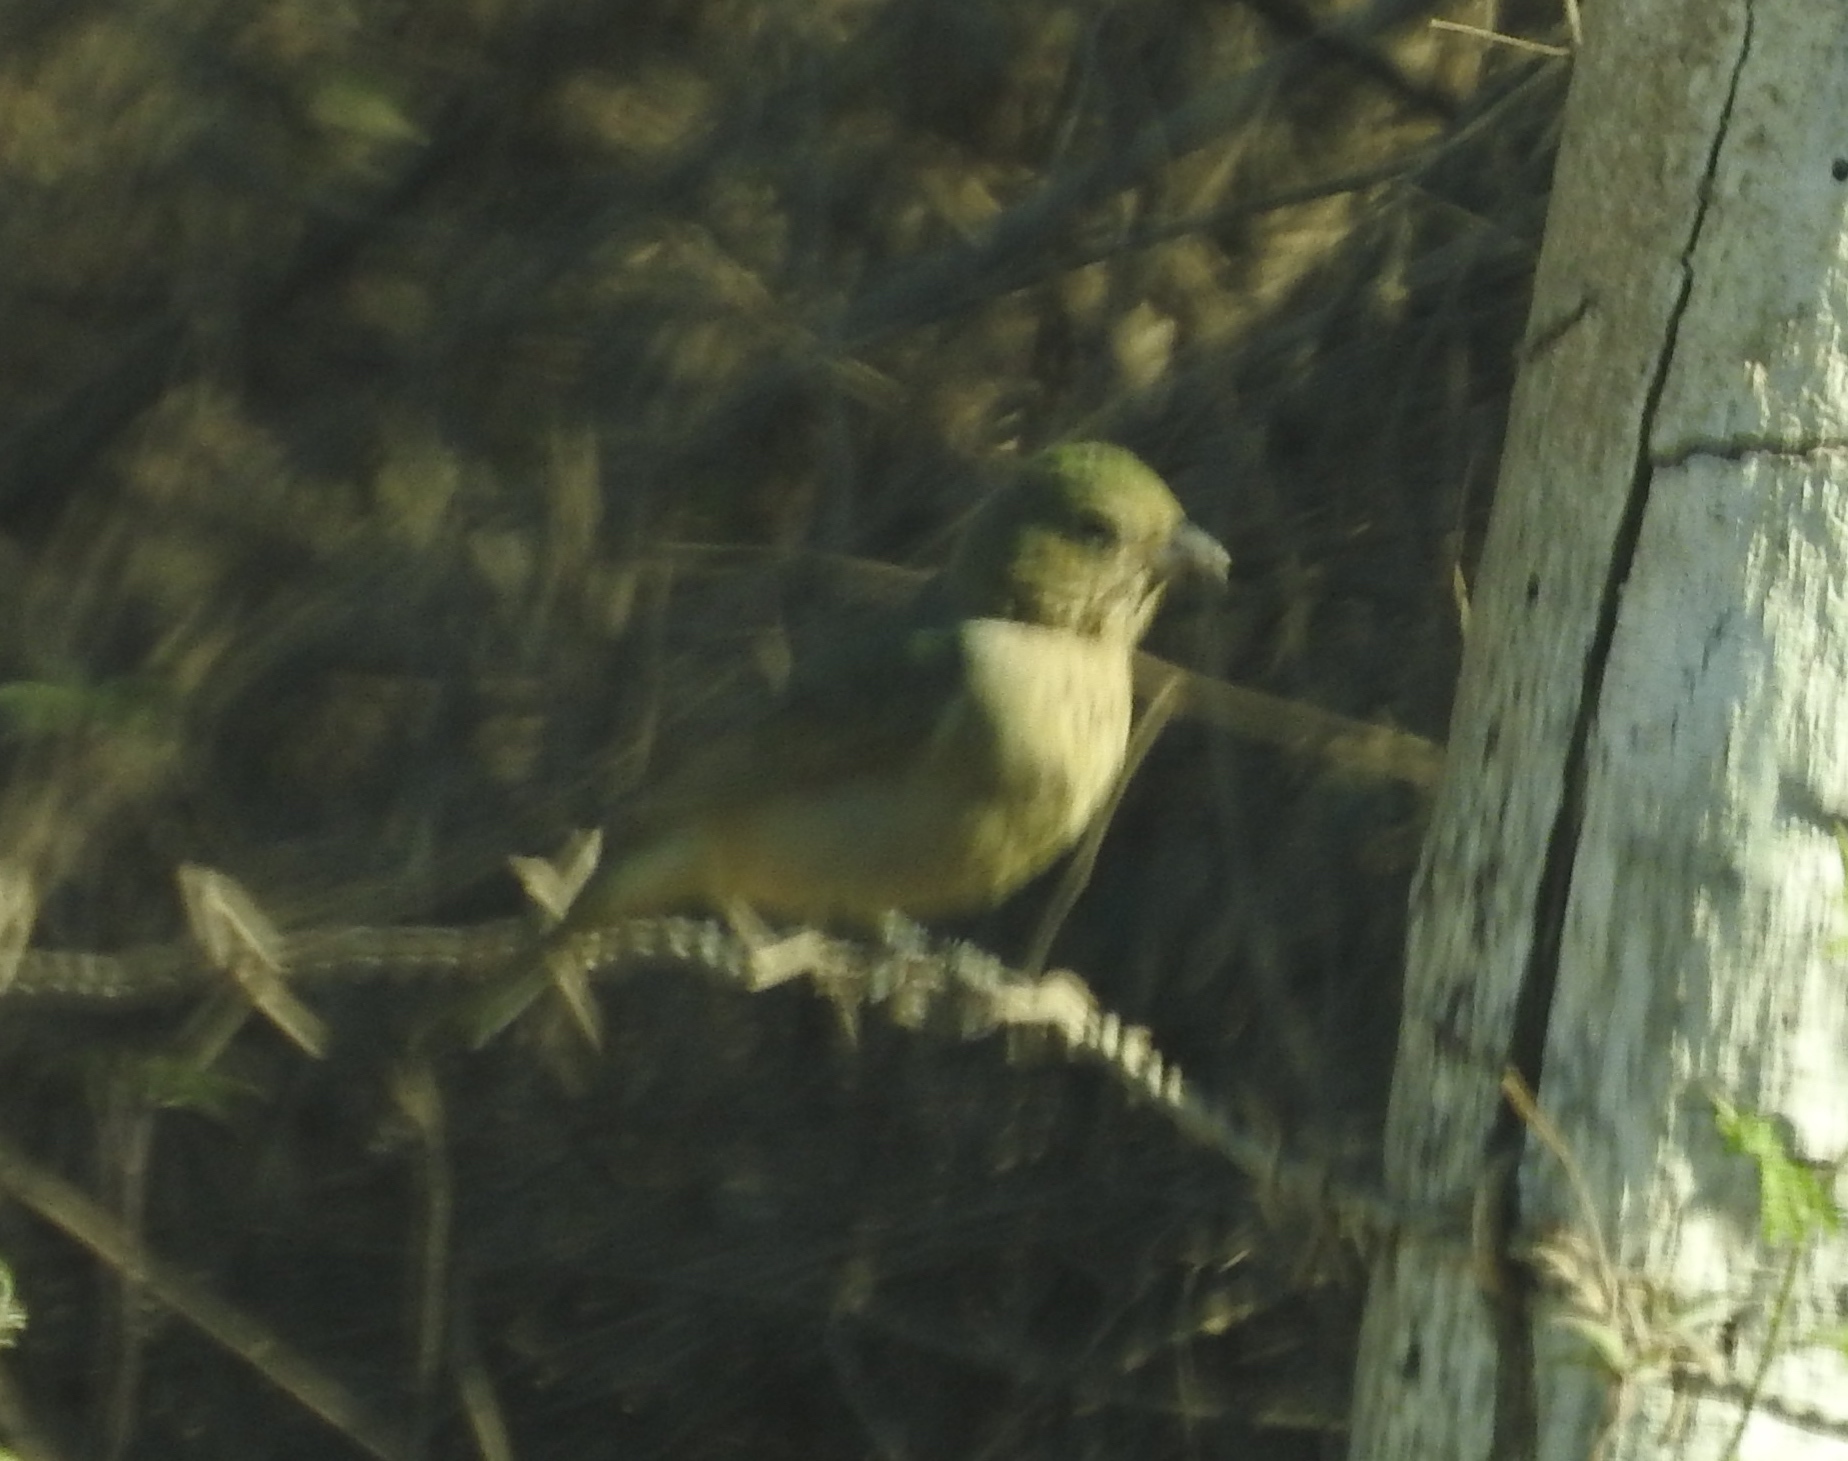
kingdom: Animalia
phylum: Chordata
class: Aves
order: Passeriformes
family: Cardinalidae
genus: Passerina
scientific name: Passerina ciris
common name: Painted bunting
